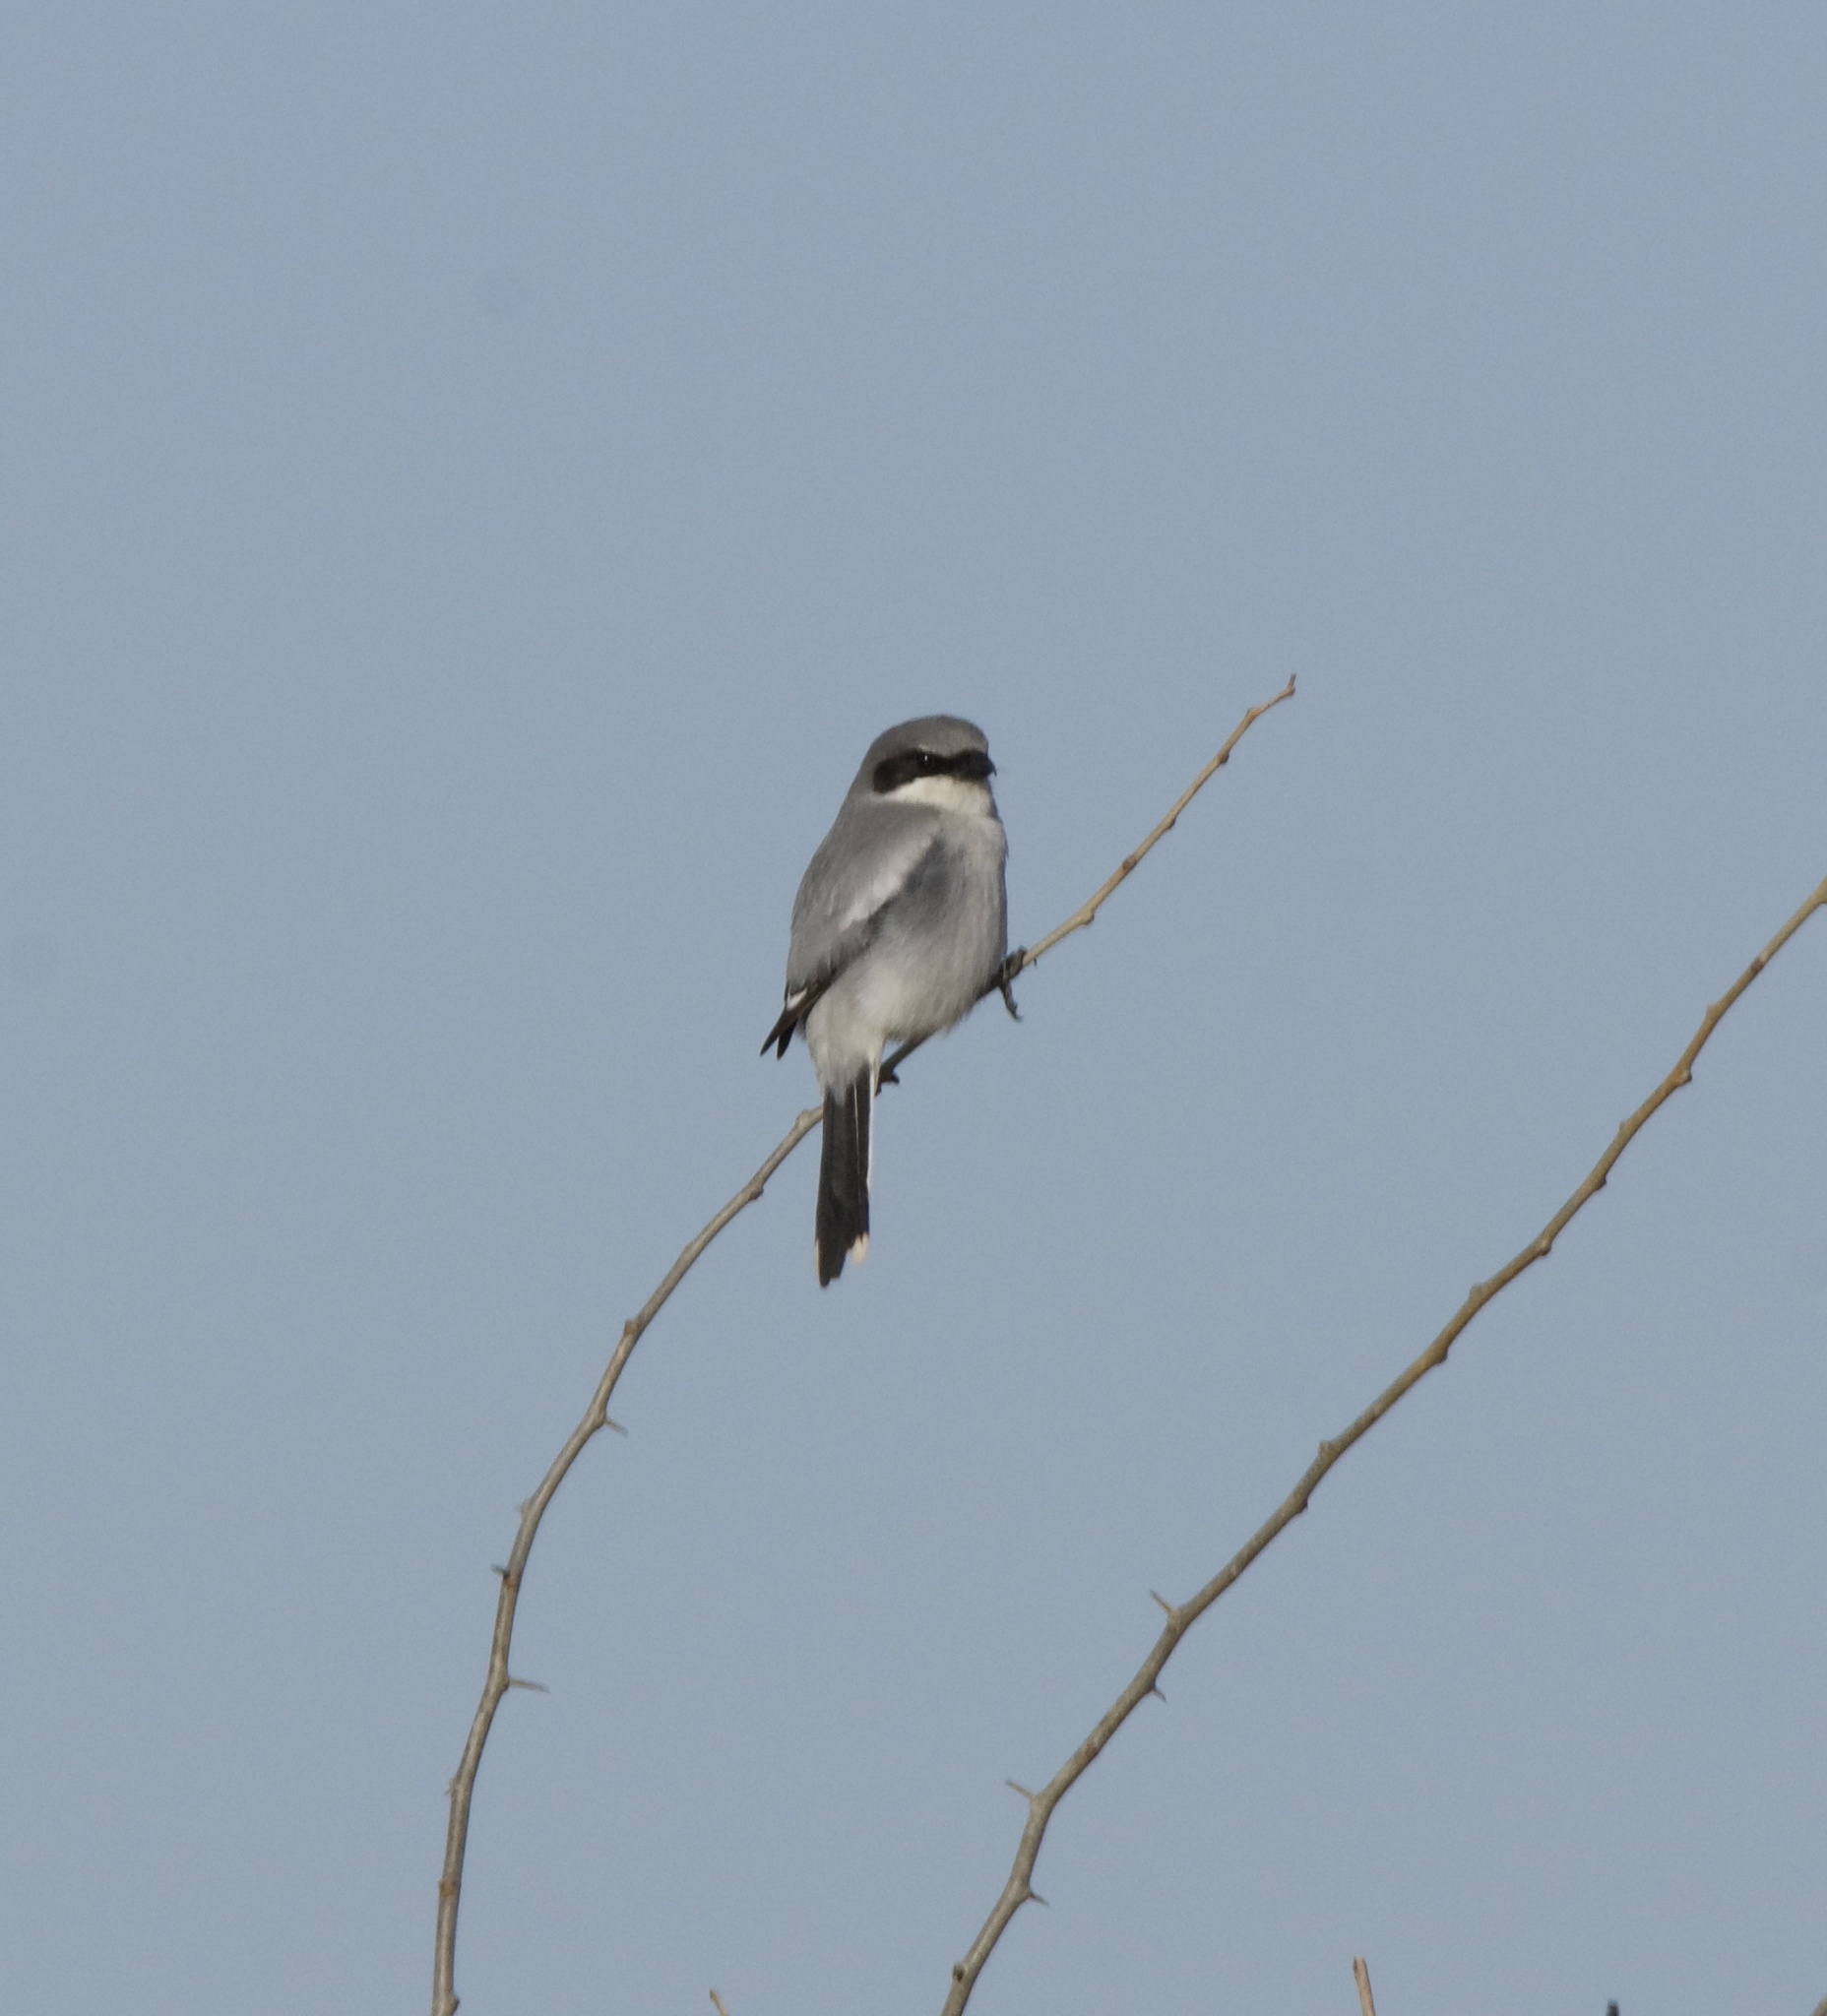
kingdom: Animalia
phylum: Chordata
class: Aves
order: Passeriformes
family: Laniidae
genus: Lanius
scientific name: Lanius ludovicianus
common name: Loggerhead shrike
